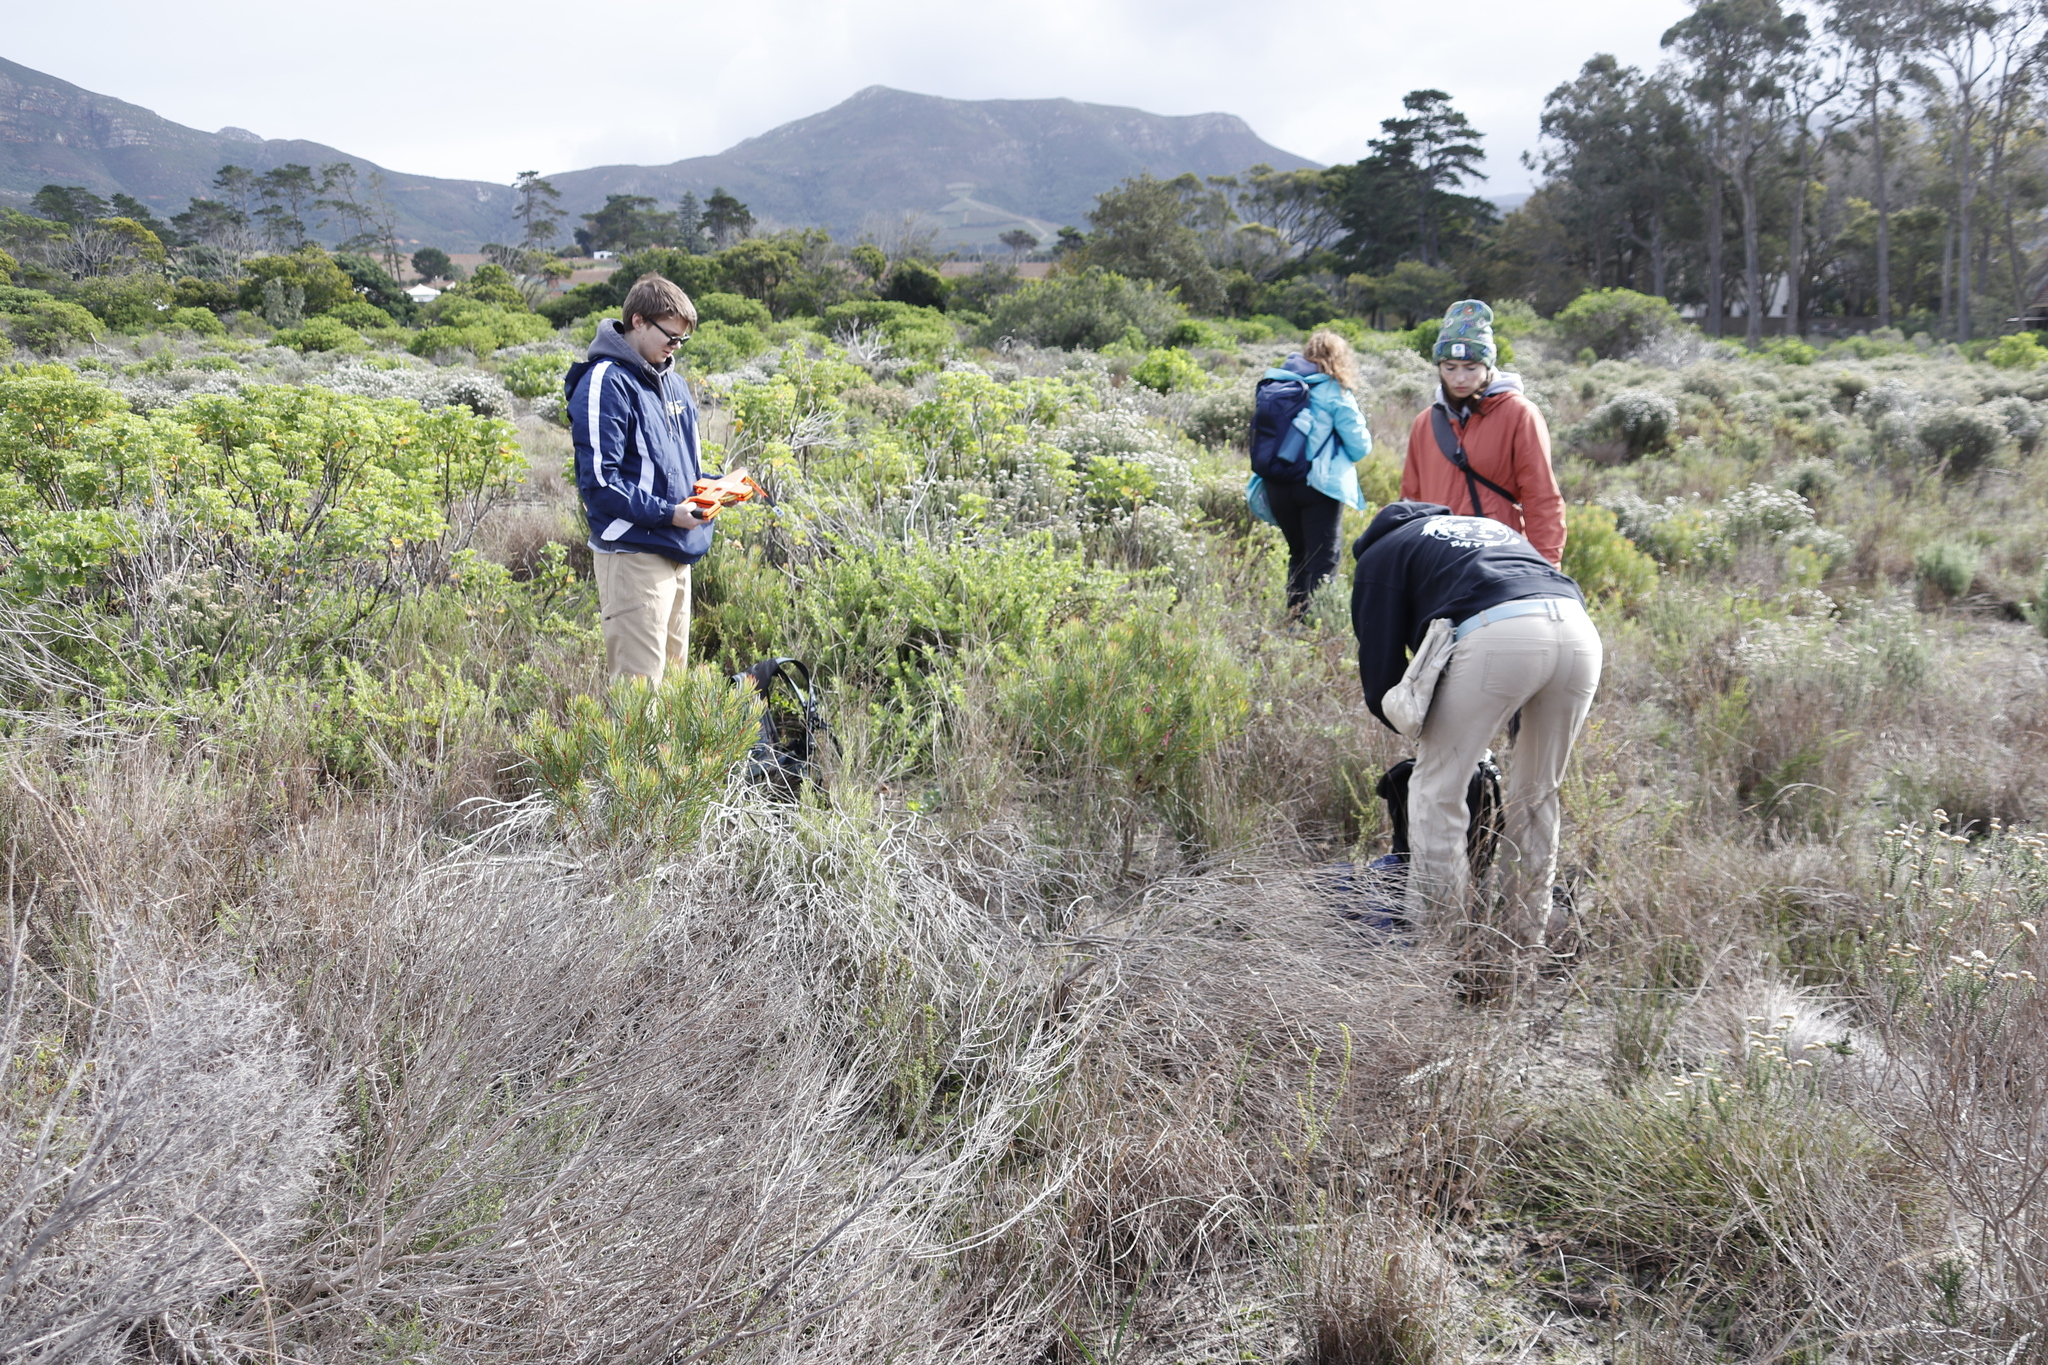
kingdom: Plantae
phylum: Tracheophyta
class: Magnoliopsida
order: Proteales
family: Proteaceae
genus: Protea
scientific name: Protea scolymocephala
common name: Thistle sugarbush
